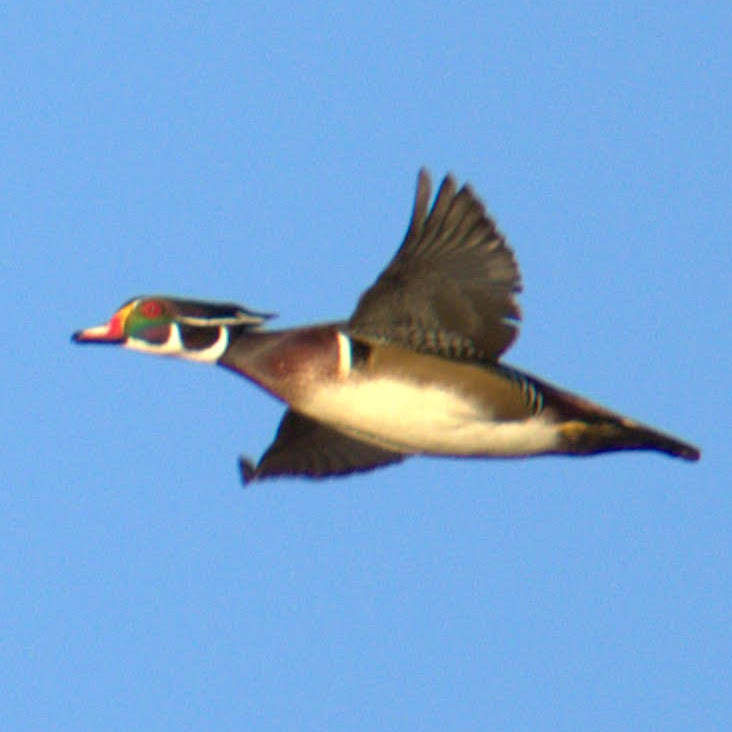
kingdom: Animalia
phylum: Chordata
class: Aves
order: Anseriformes
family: Anatidae
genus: Aix
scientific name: Aix sponsa
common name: Wood duck
